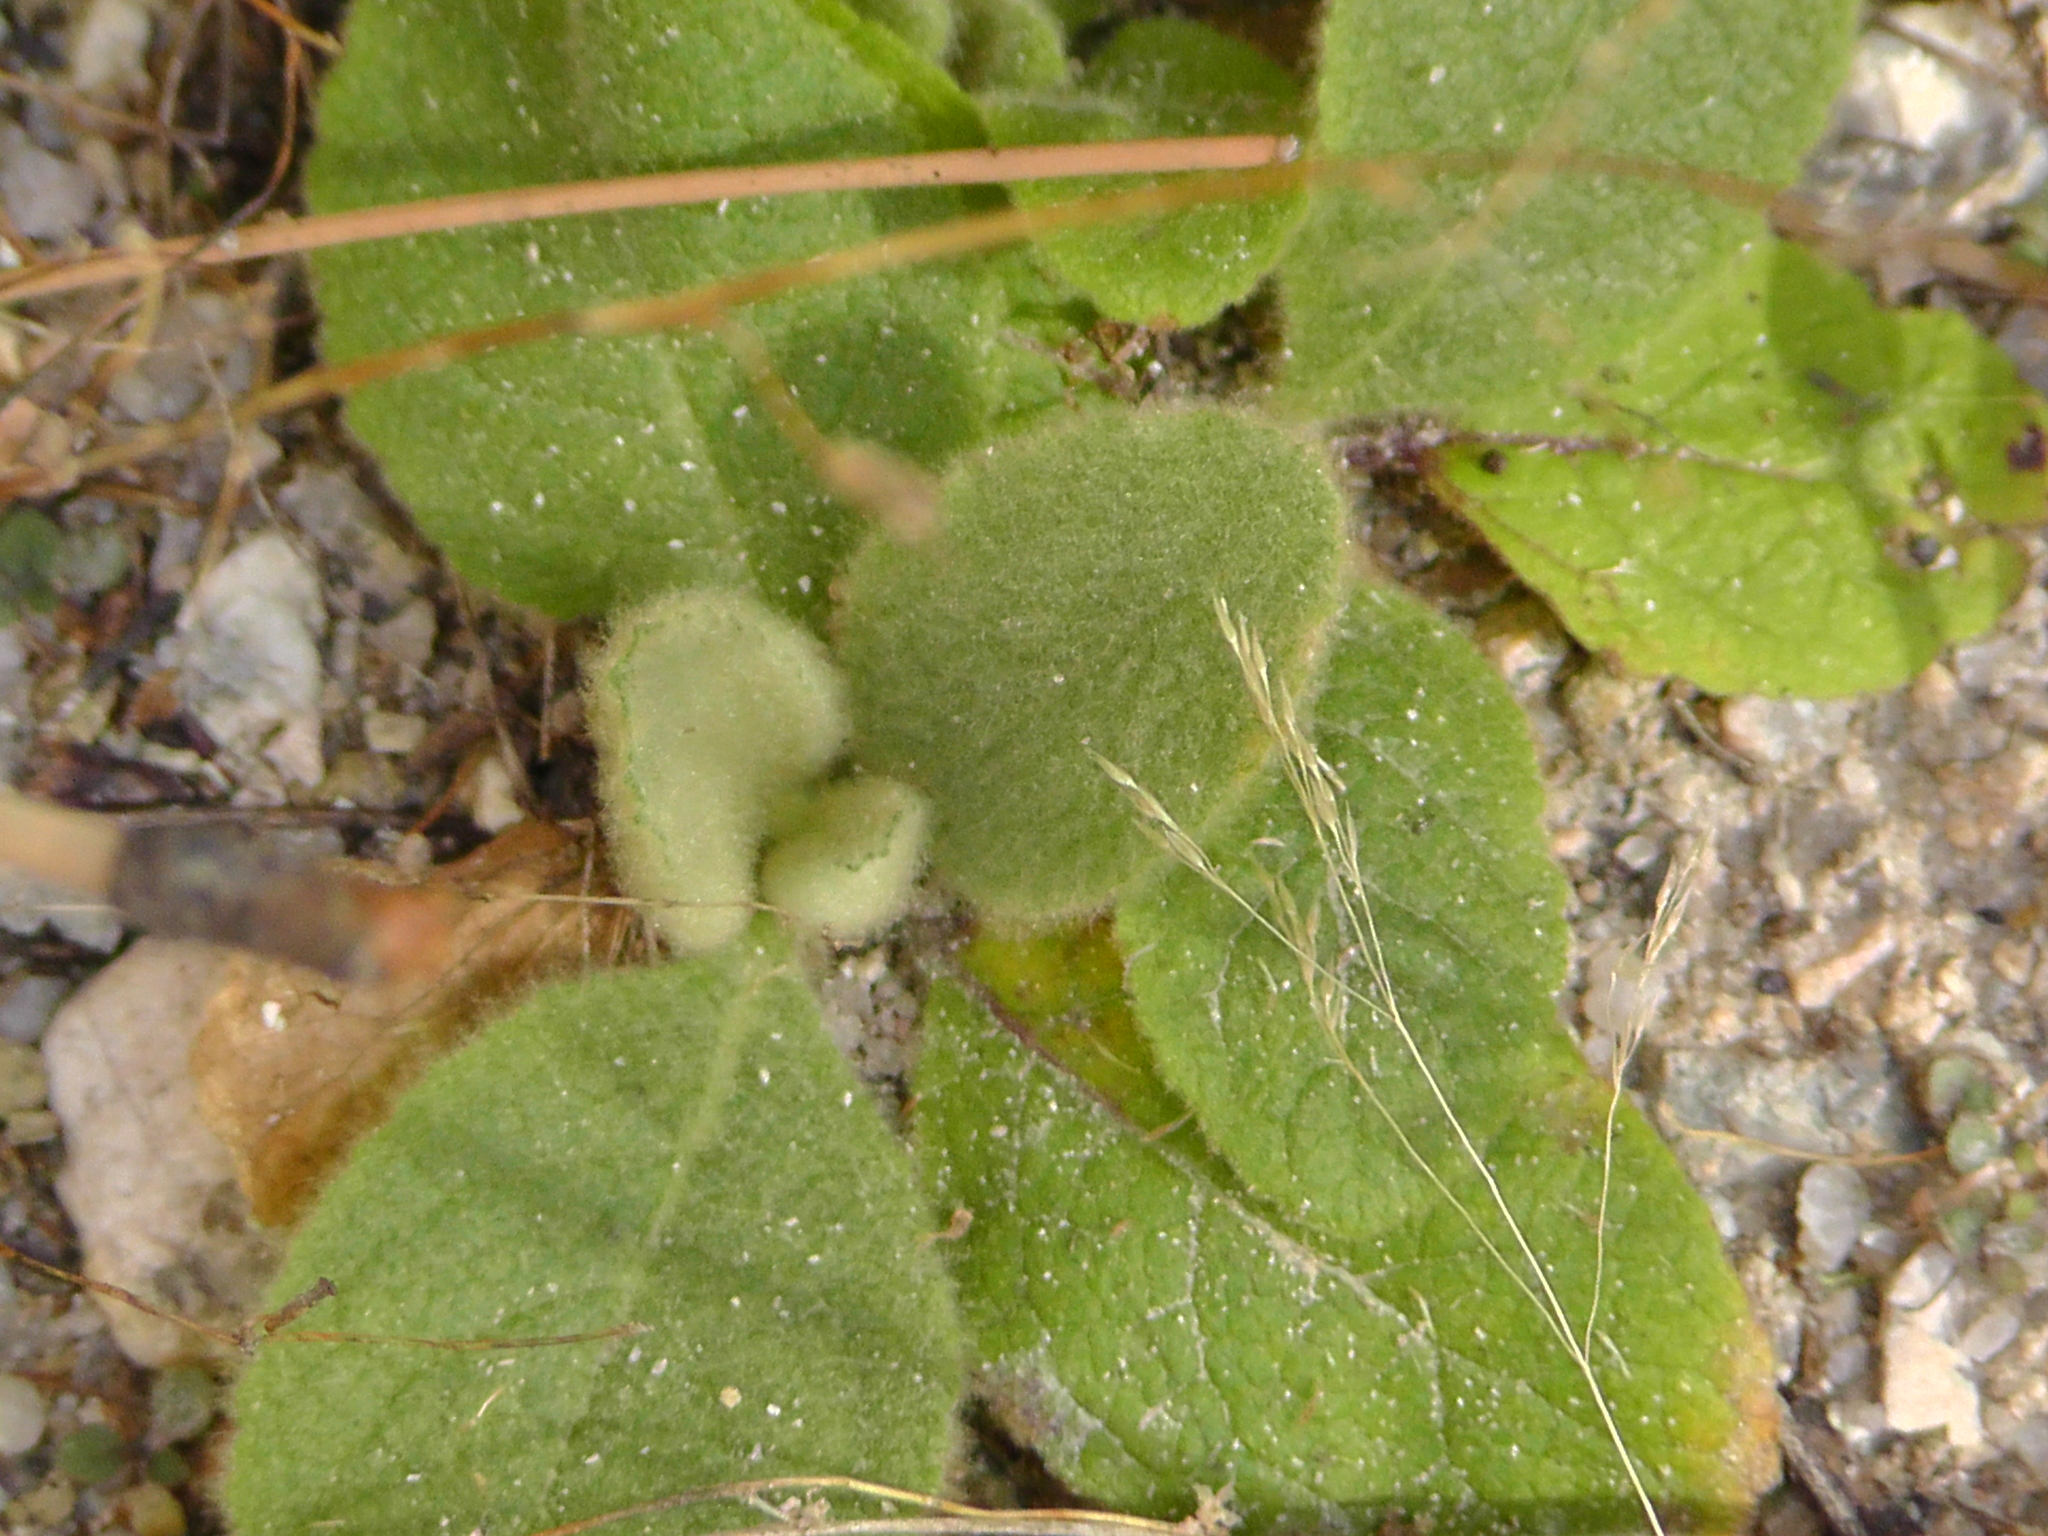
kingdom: Plantae
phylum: Tracheophyta
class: Magnoliopsida
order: Lamiales
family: Scrophulariaceae
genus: Verbascum
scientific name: Verbascum thapsus
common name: Common mullein
